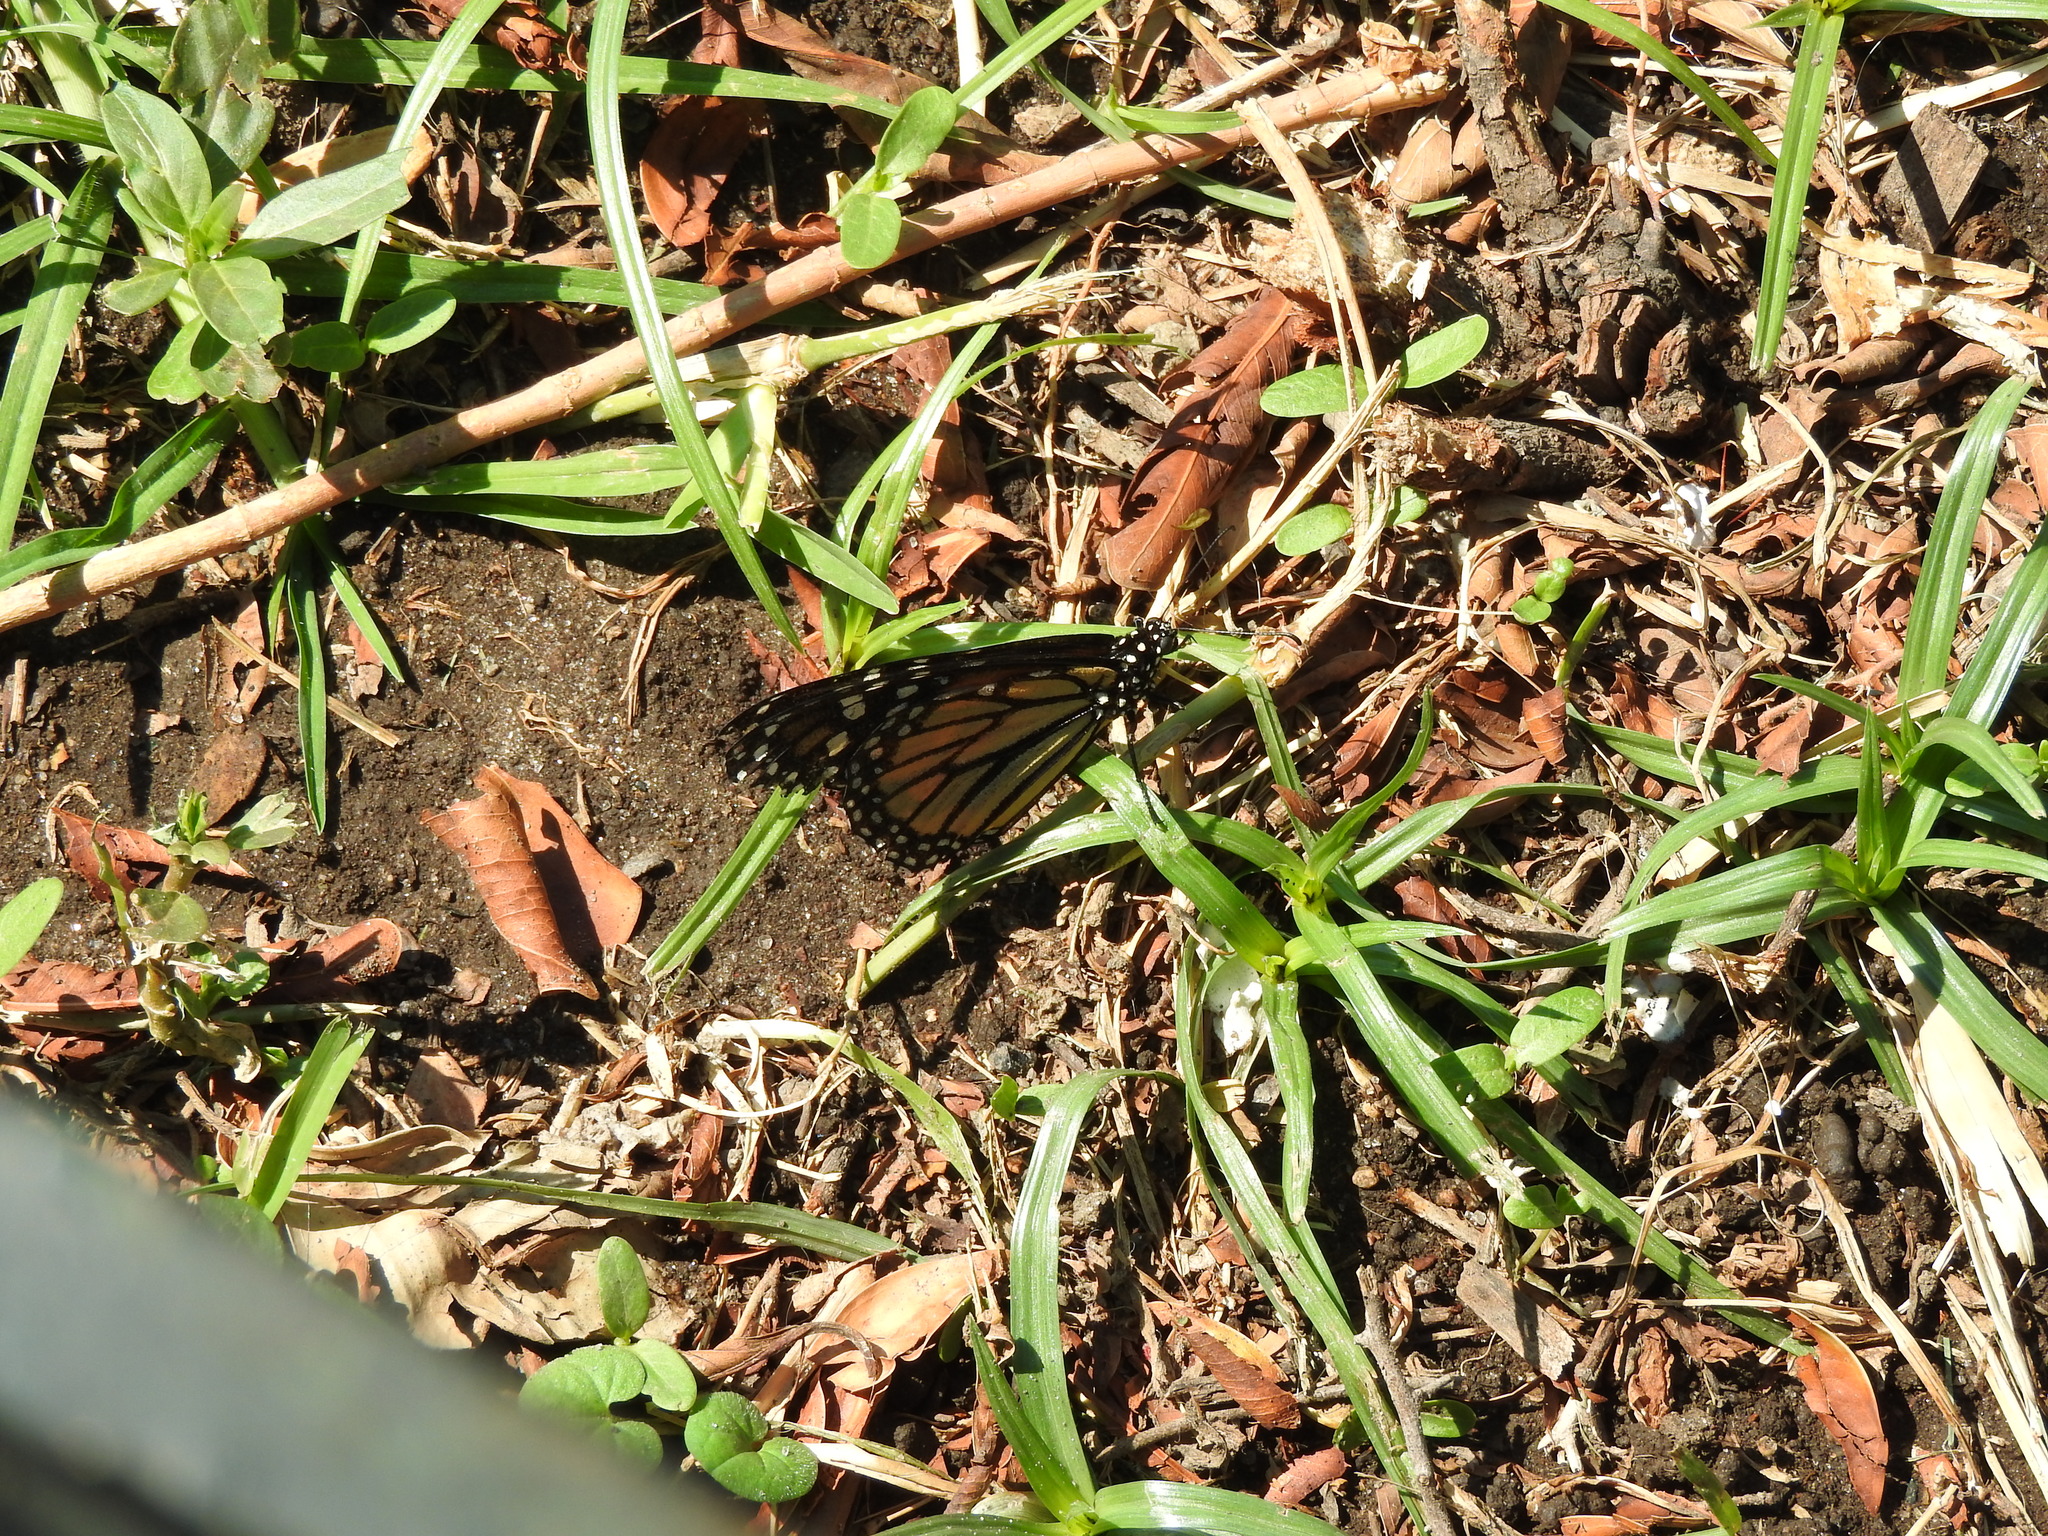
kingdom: Animalia
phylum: Arthropoda
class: Insecta
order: Lepidoptera
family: Nymphalidae
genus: Danaus
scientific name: Danaus plexippus
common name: Monarch
